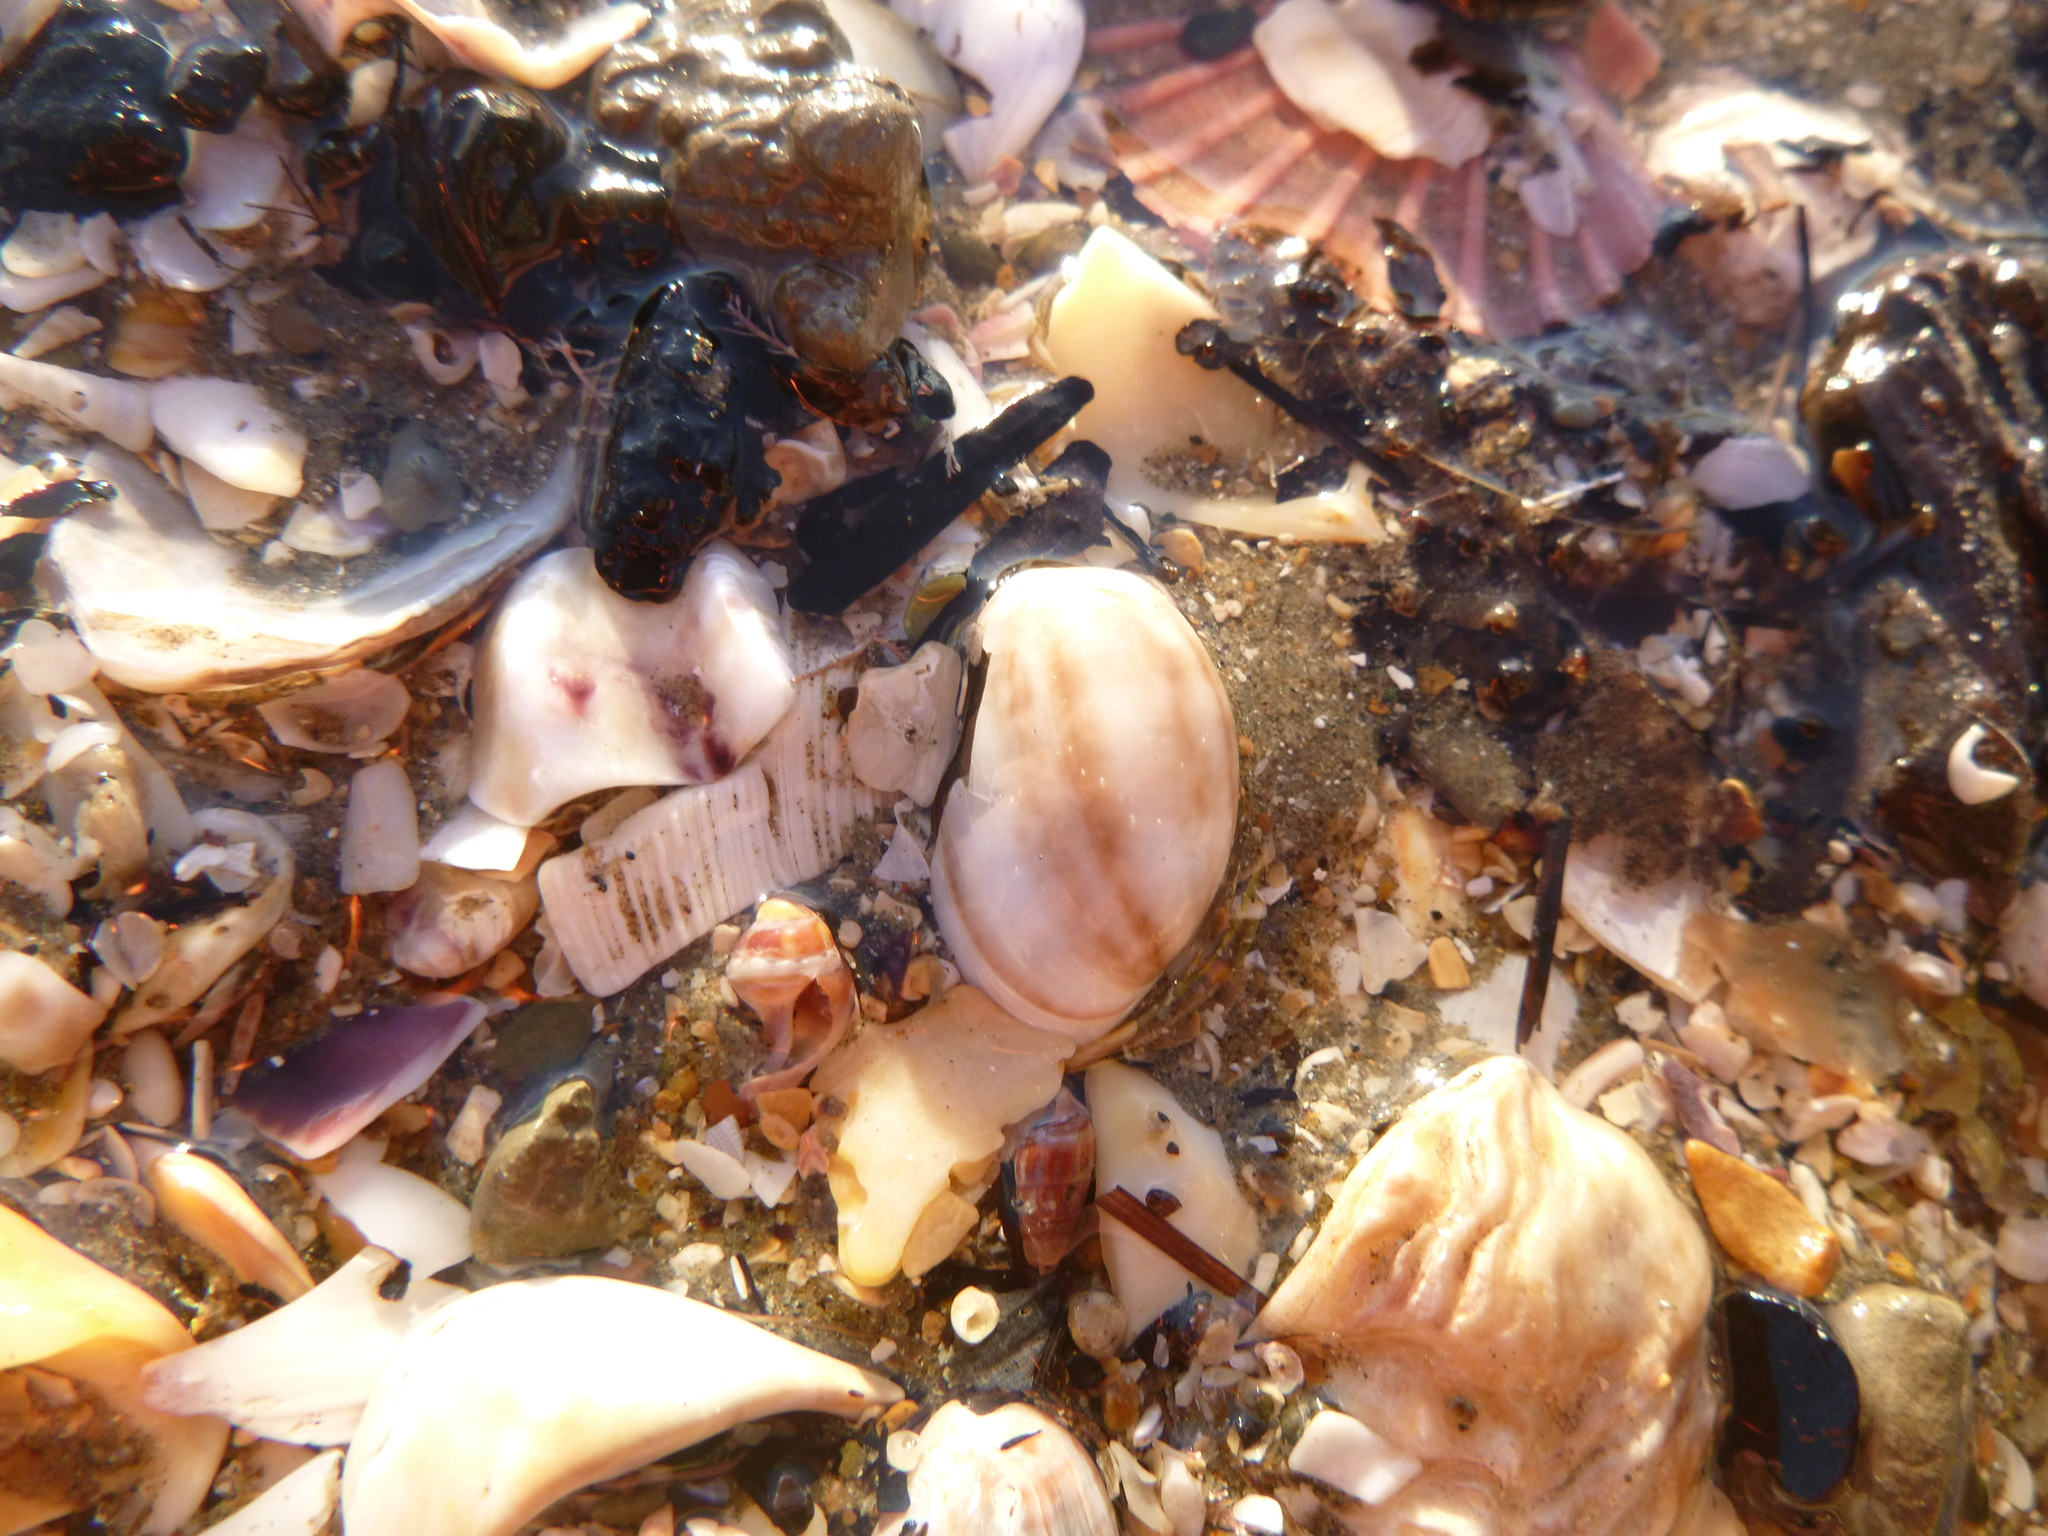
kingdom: Animalia
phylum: Mollusca
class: Gastropoda
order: Cephalaspidea
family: Bullidae
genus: Bulla
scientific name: Bulla quoyii
